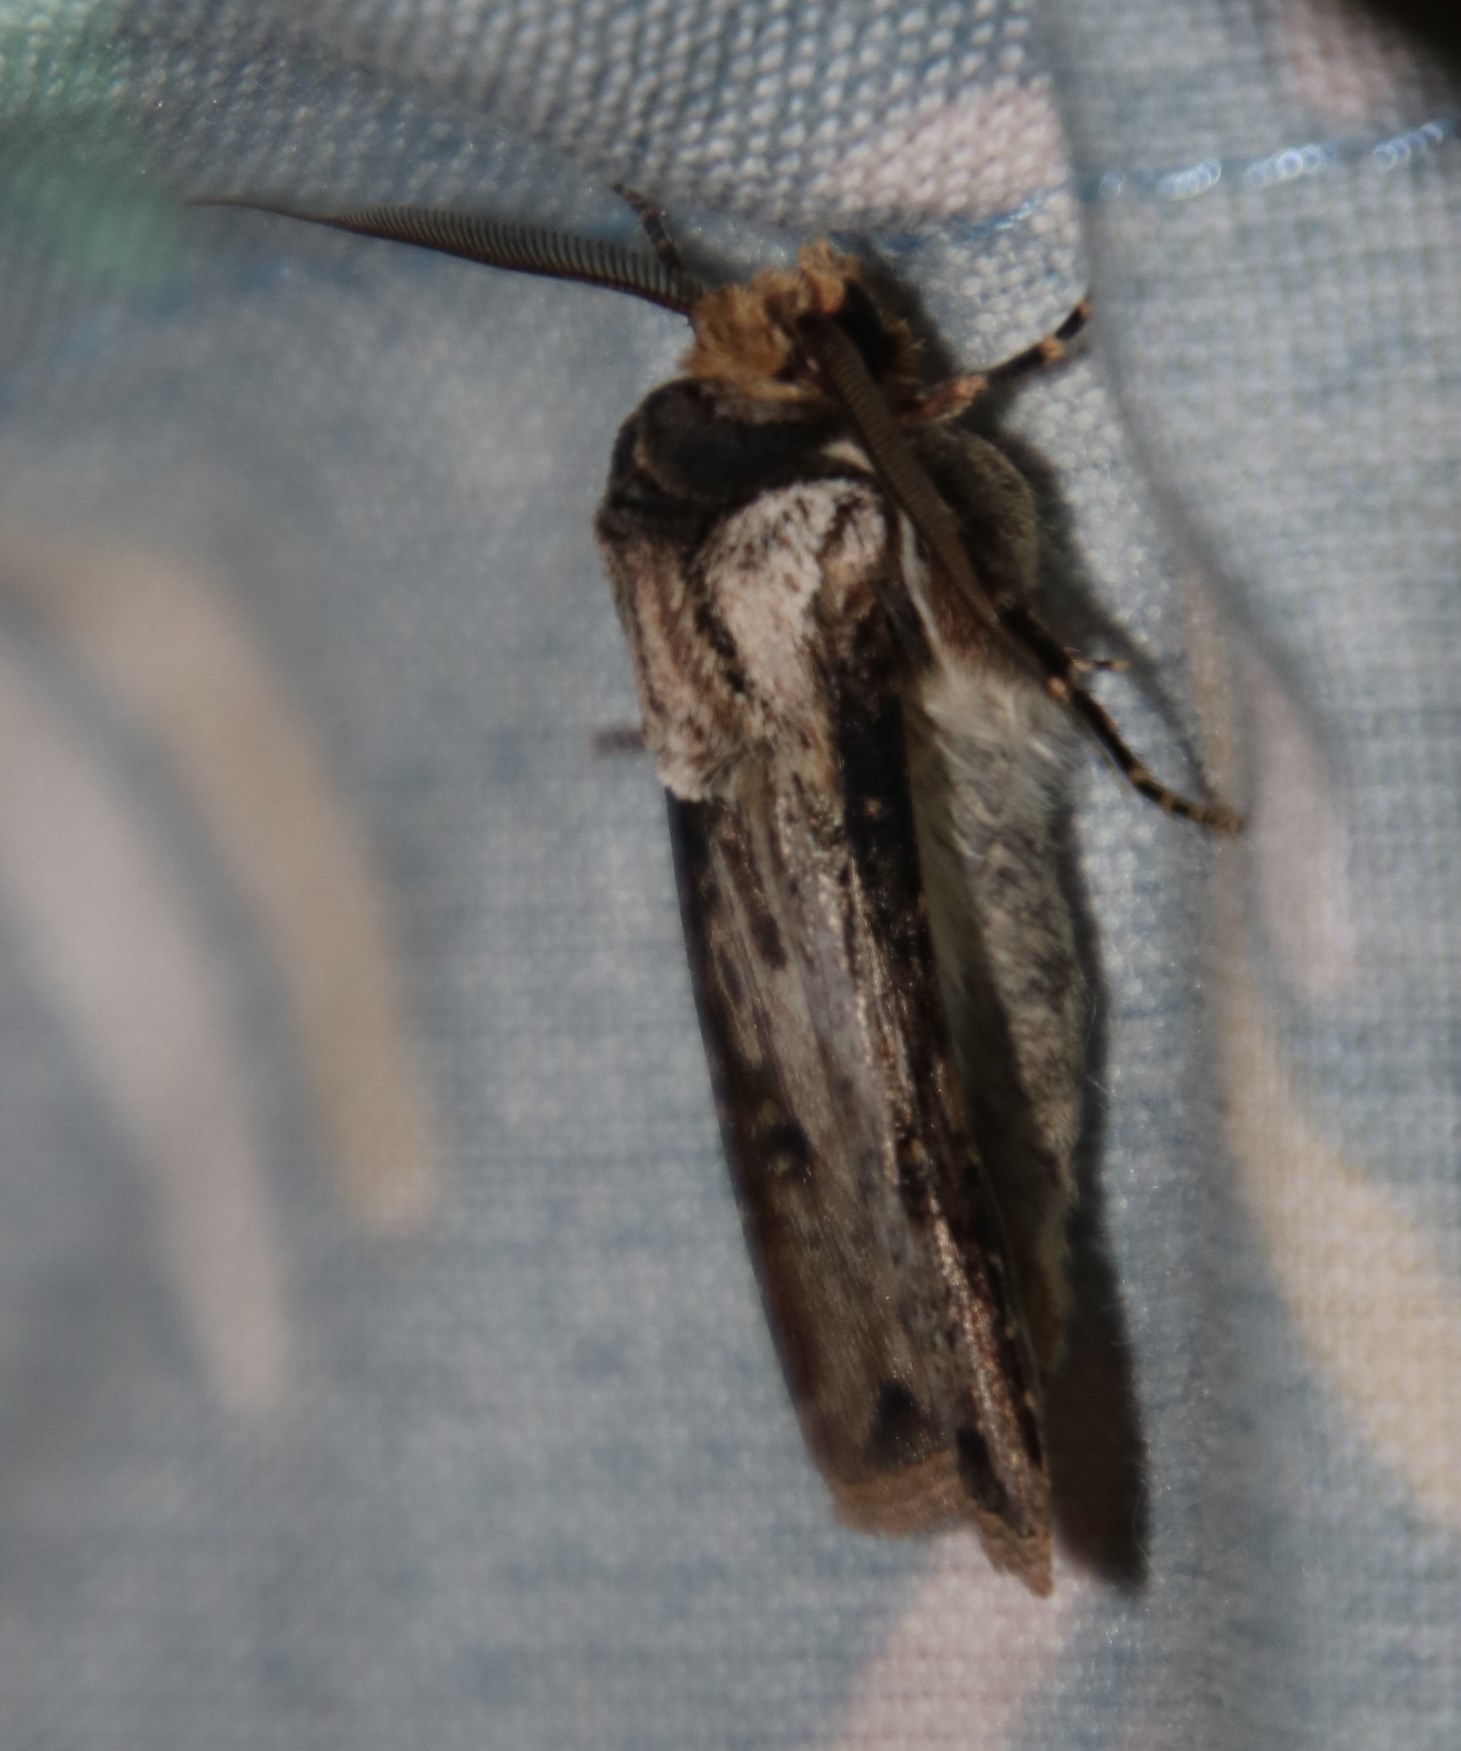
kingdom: Animalia
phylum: Arthropoda
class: Insecta
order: Lepidoptera
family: Noctuidae
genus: Agrotis
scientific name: Agrotis
